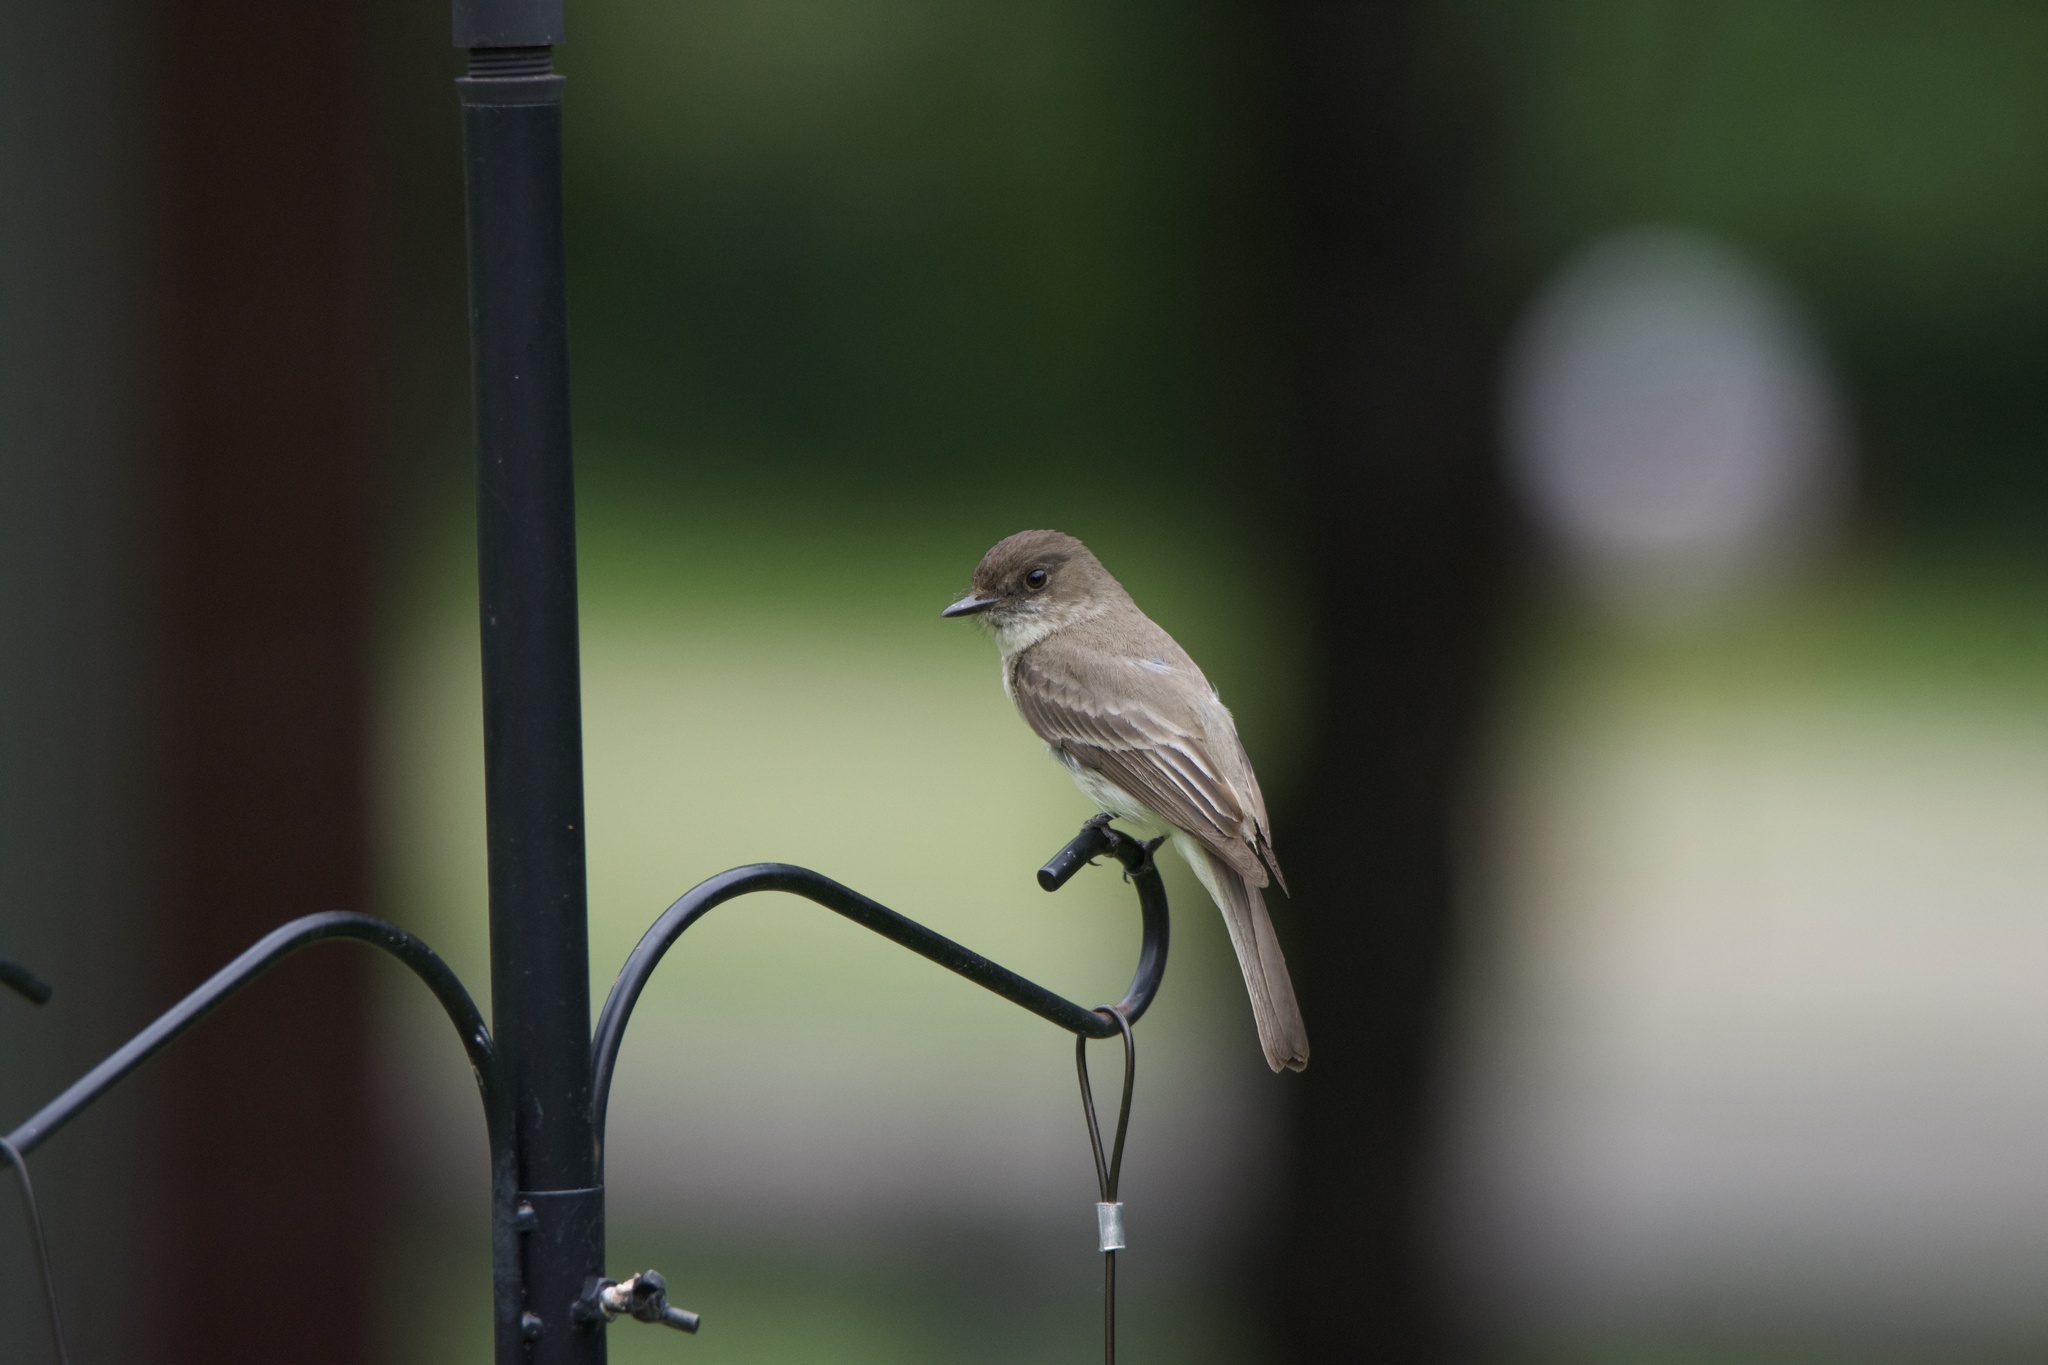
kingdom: Animalia
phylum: Chordata
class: Aves
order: Passeriformes
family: Tyrannidae
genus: Sayornis
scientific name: Sayornis phoebe
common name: Eastern phoebe
